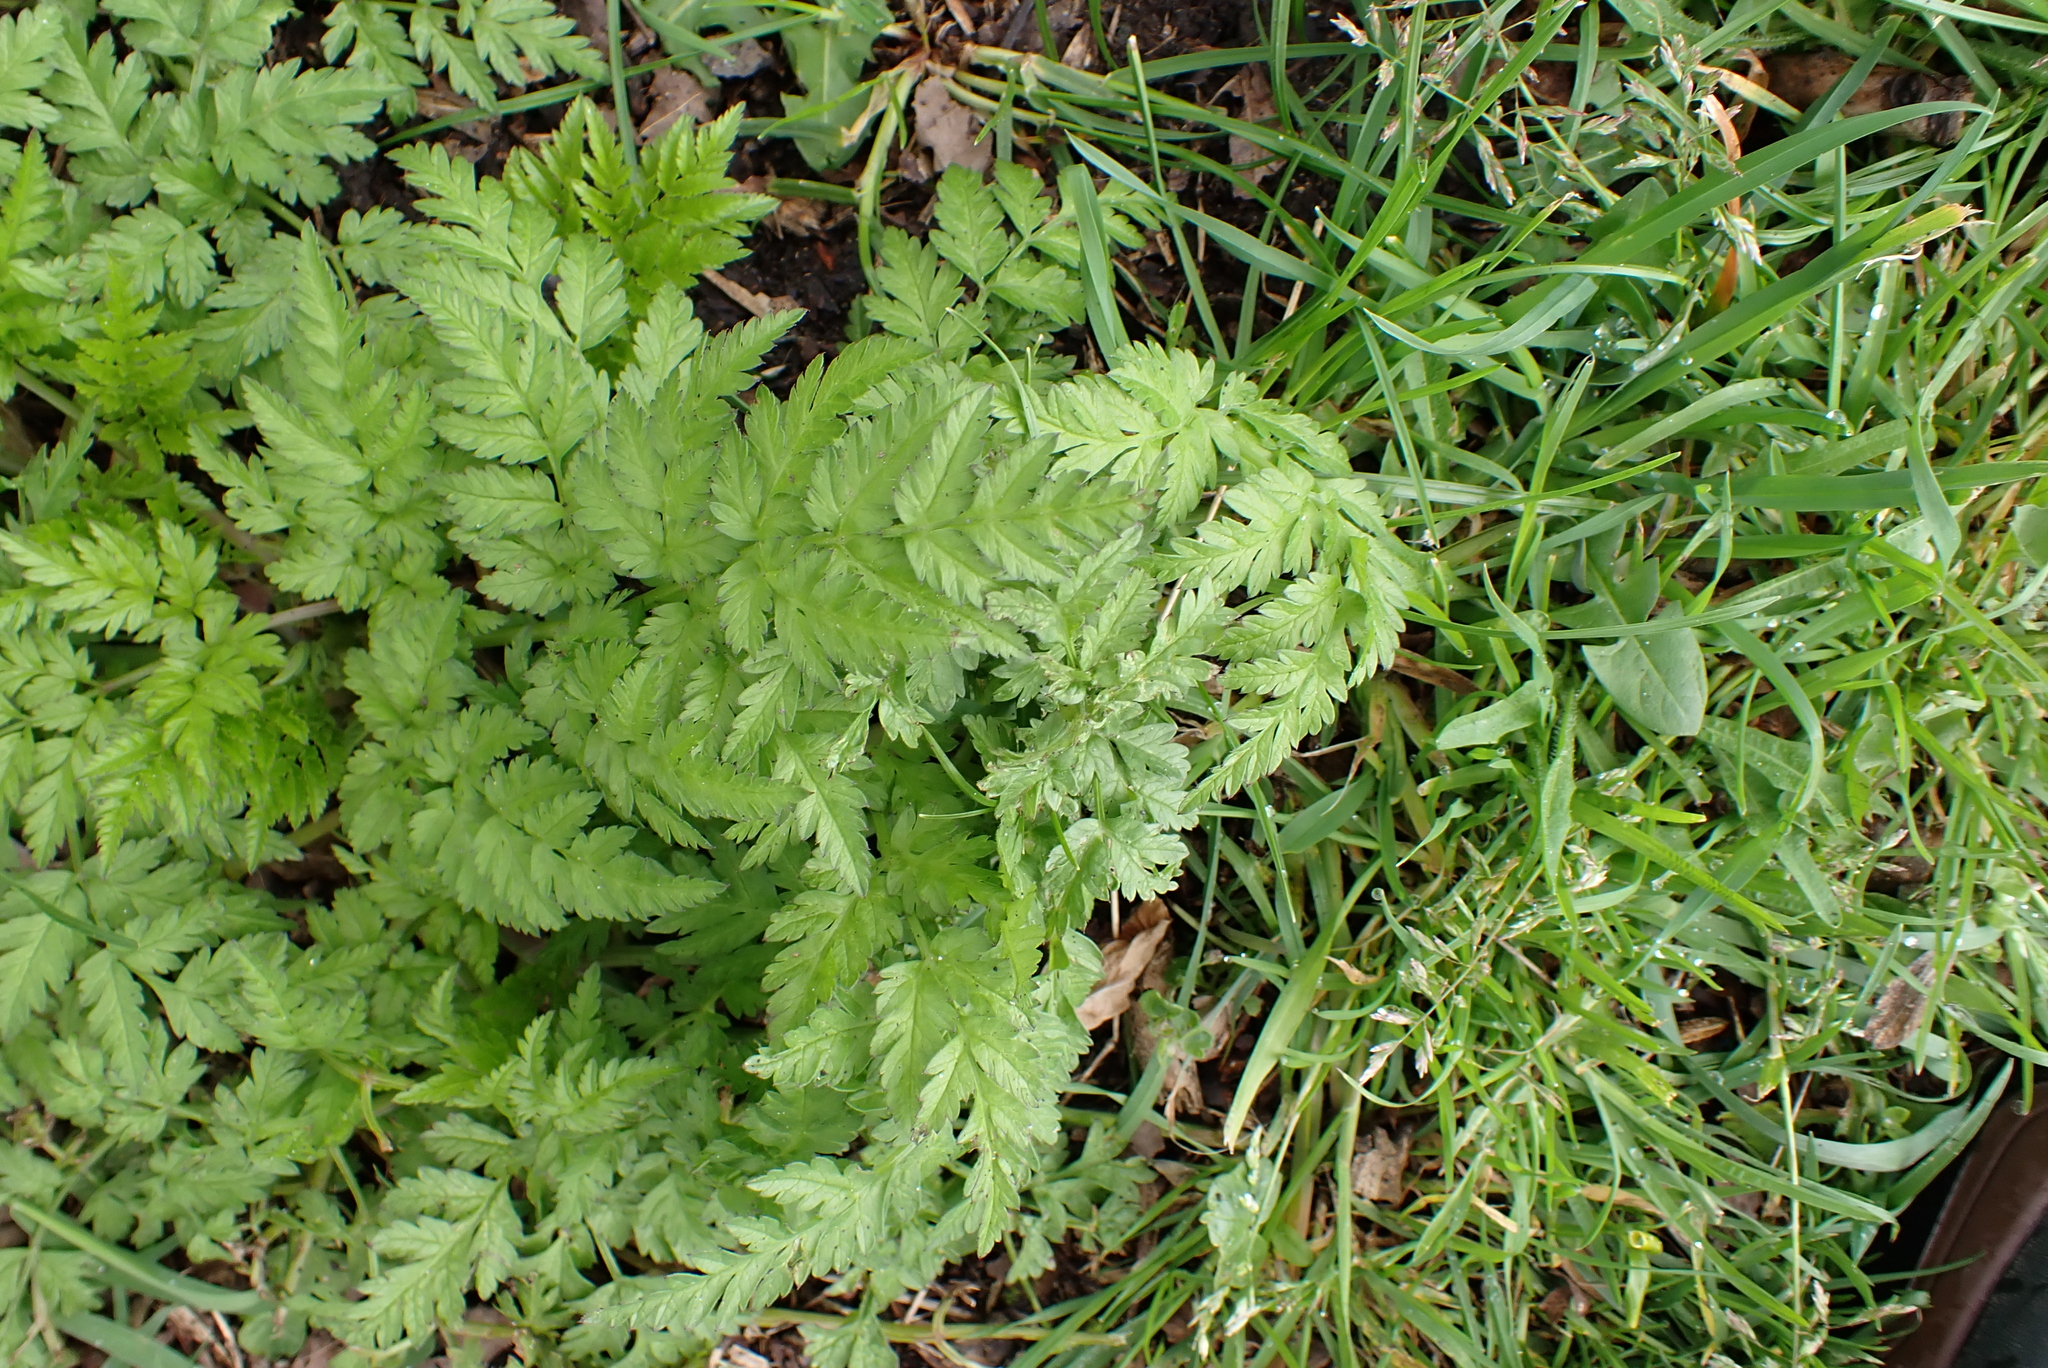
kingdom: Plantae
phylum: Tracheophyta
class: Magnoliopsida
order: Apiales
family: Apiaceae
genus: Anthriscus
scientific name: Anthriscus sylvestris
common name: Cow parsley
